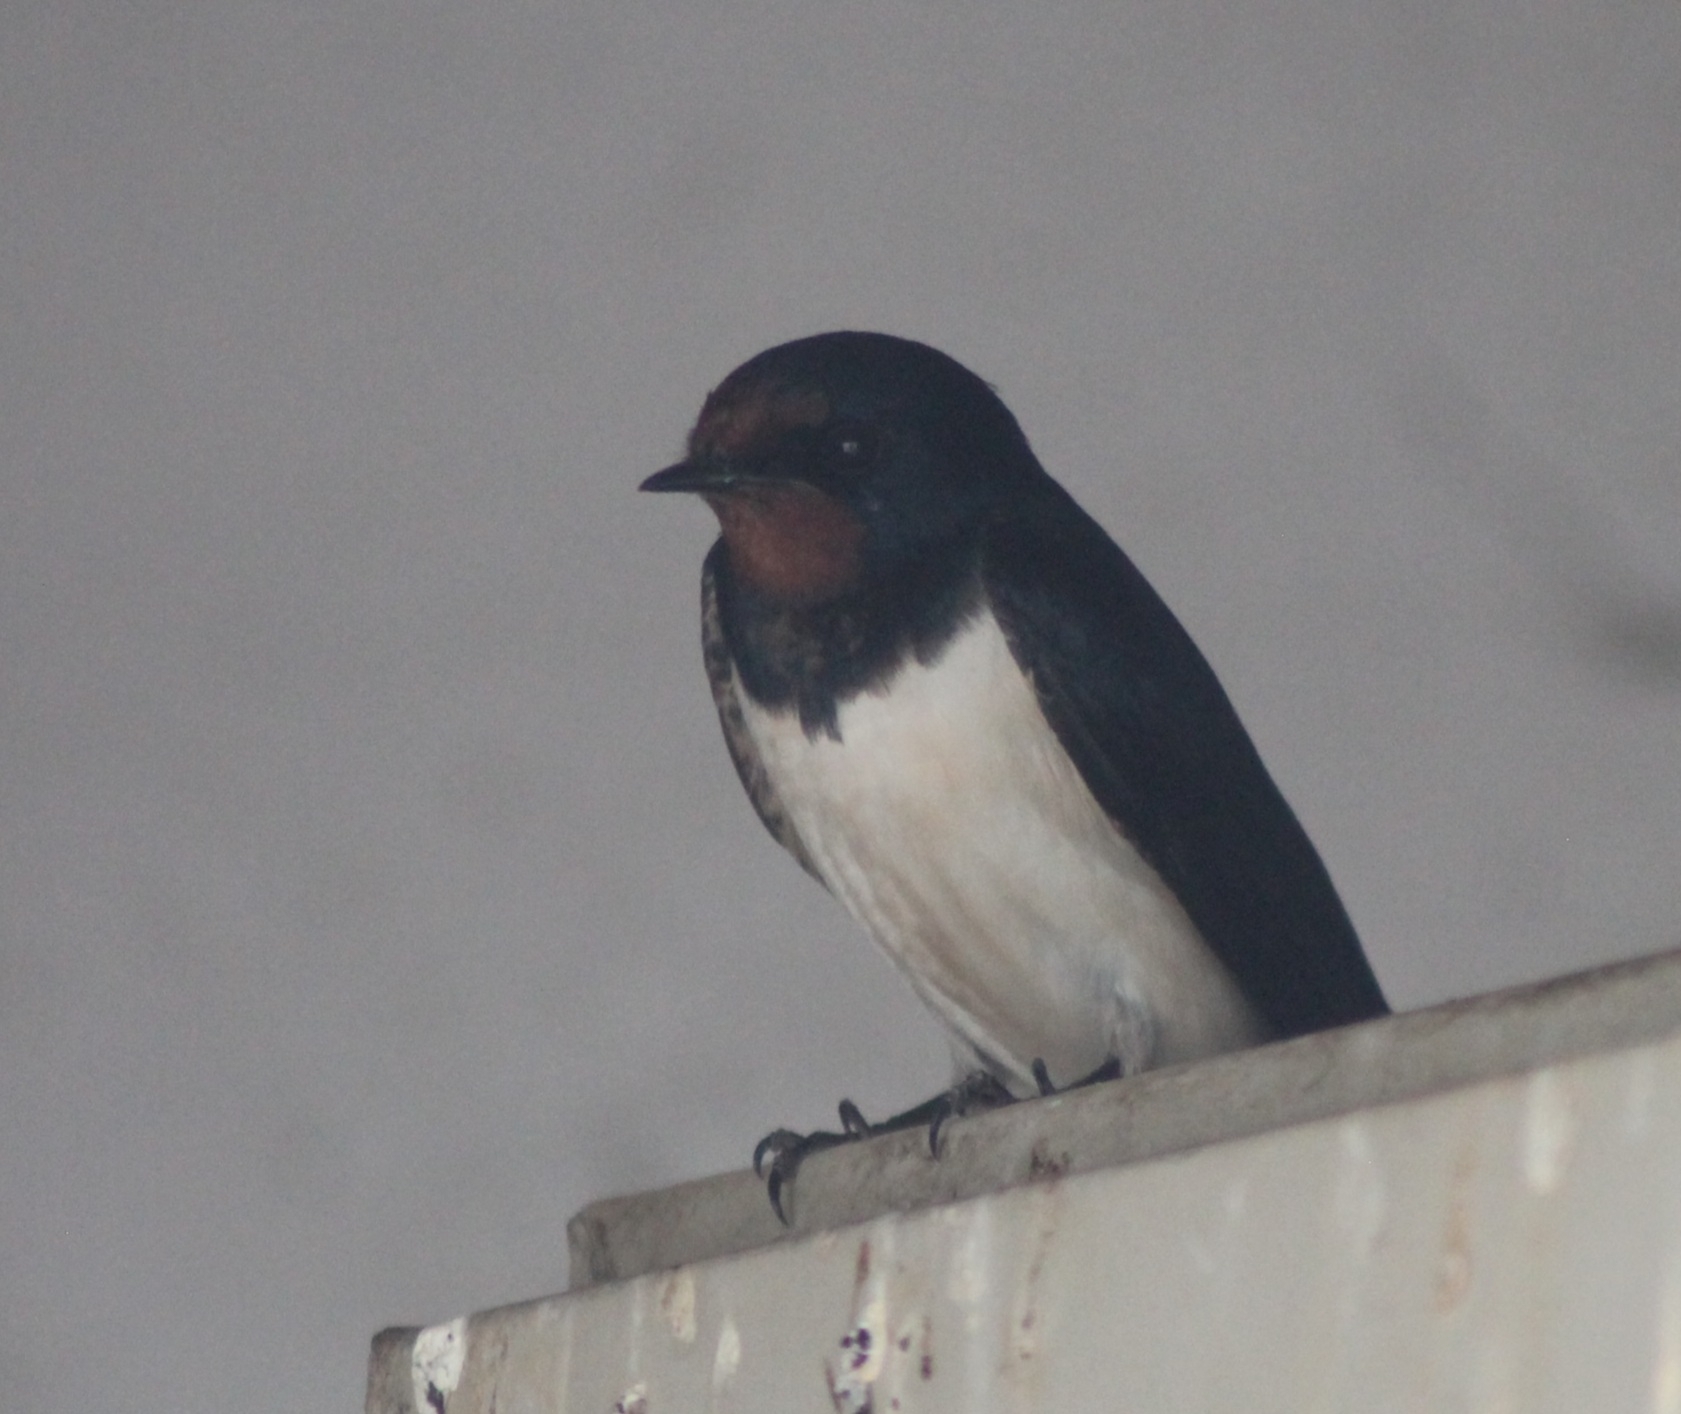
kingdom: Animalia
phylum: Chordata
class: Aves
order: Passeriformes
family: Hirundinidae
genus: Hirundo
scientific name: Hirundo rustica
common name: Barn swallow
